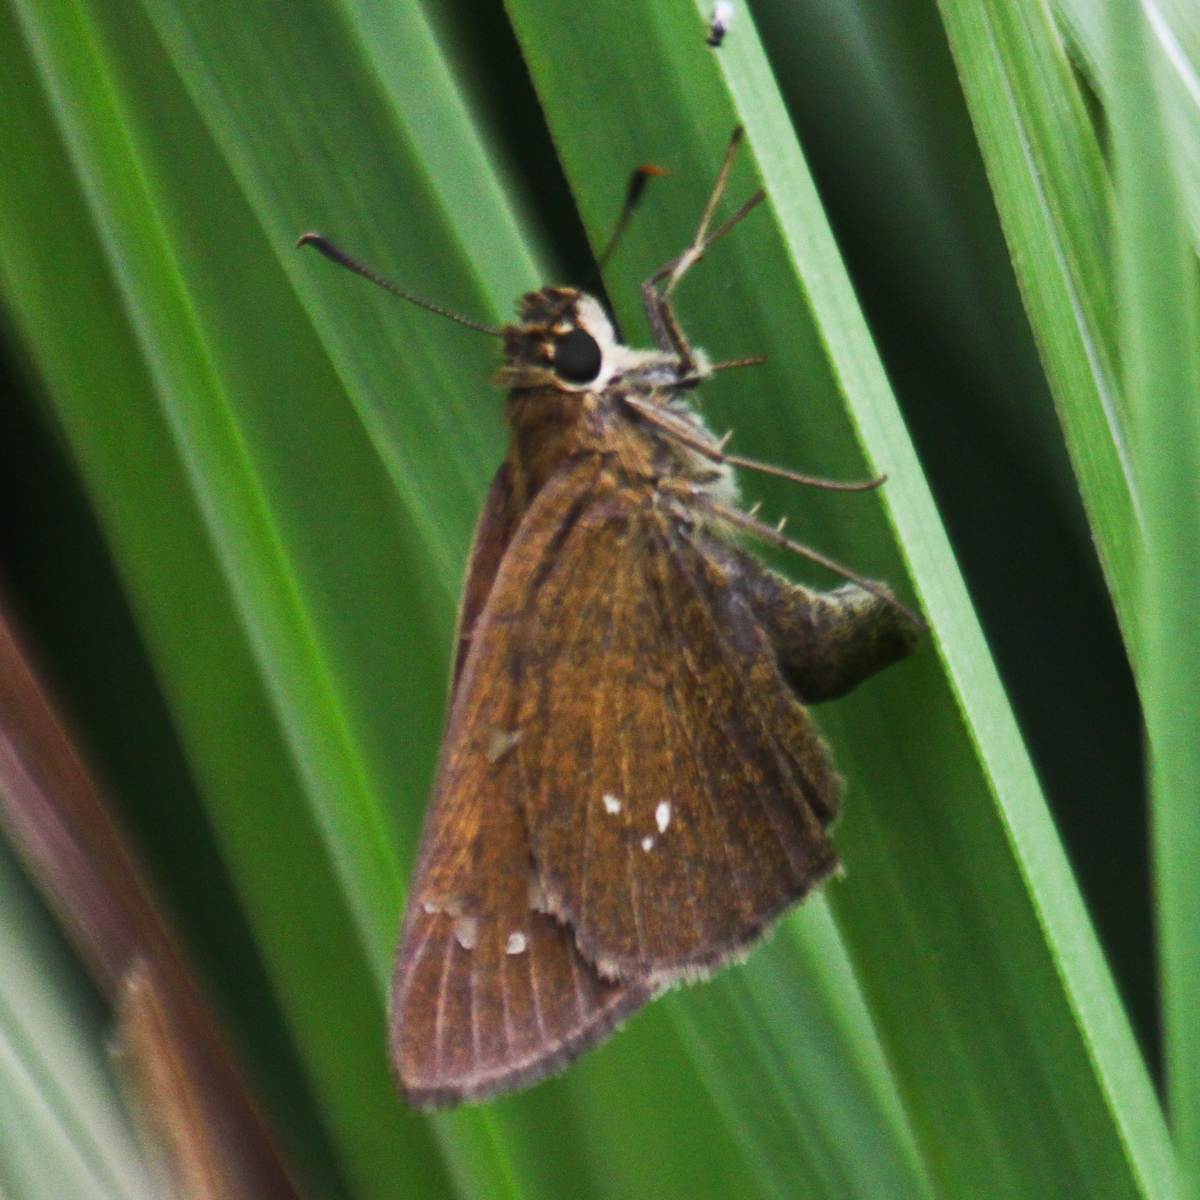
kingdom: Animalia
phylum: Arthropoda
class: Insecta
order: Lepidoptera
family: Hesperiidae
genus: Polytremis
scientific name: Polytremis lubricans
